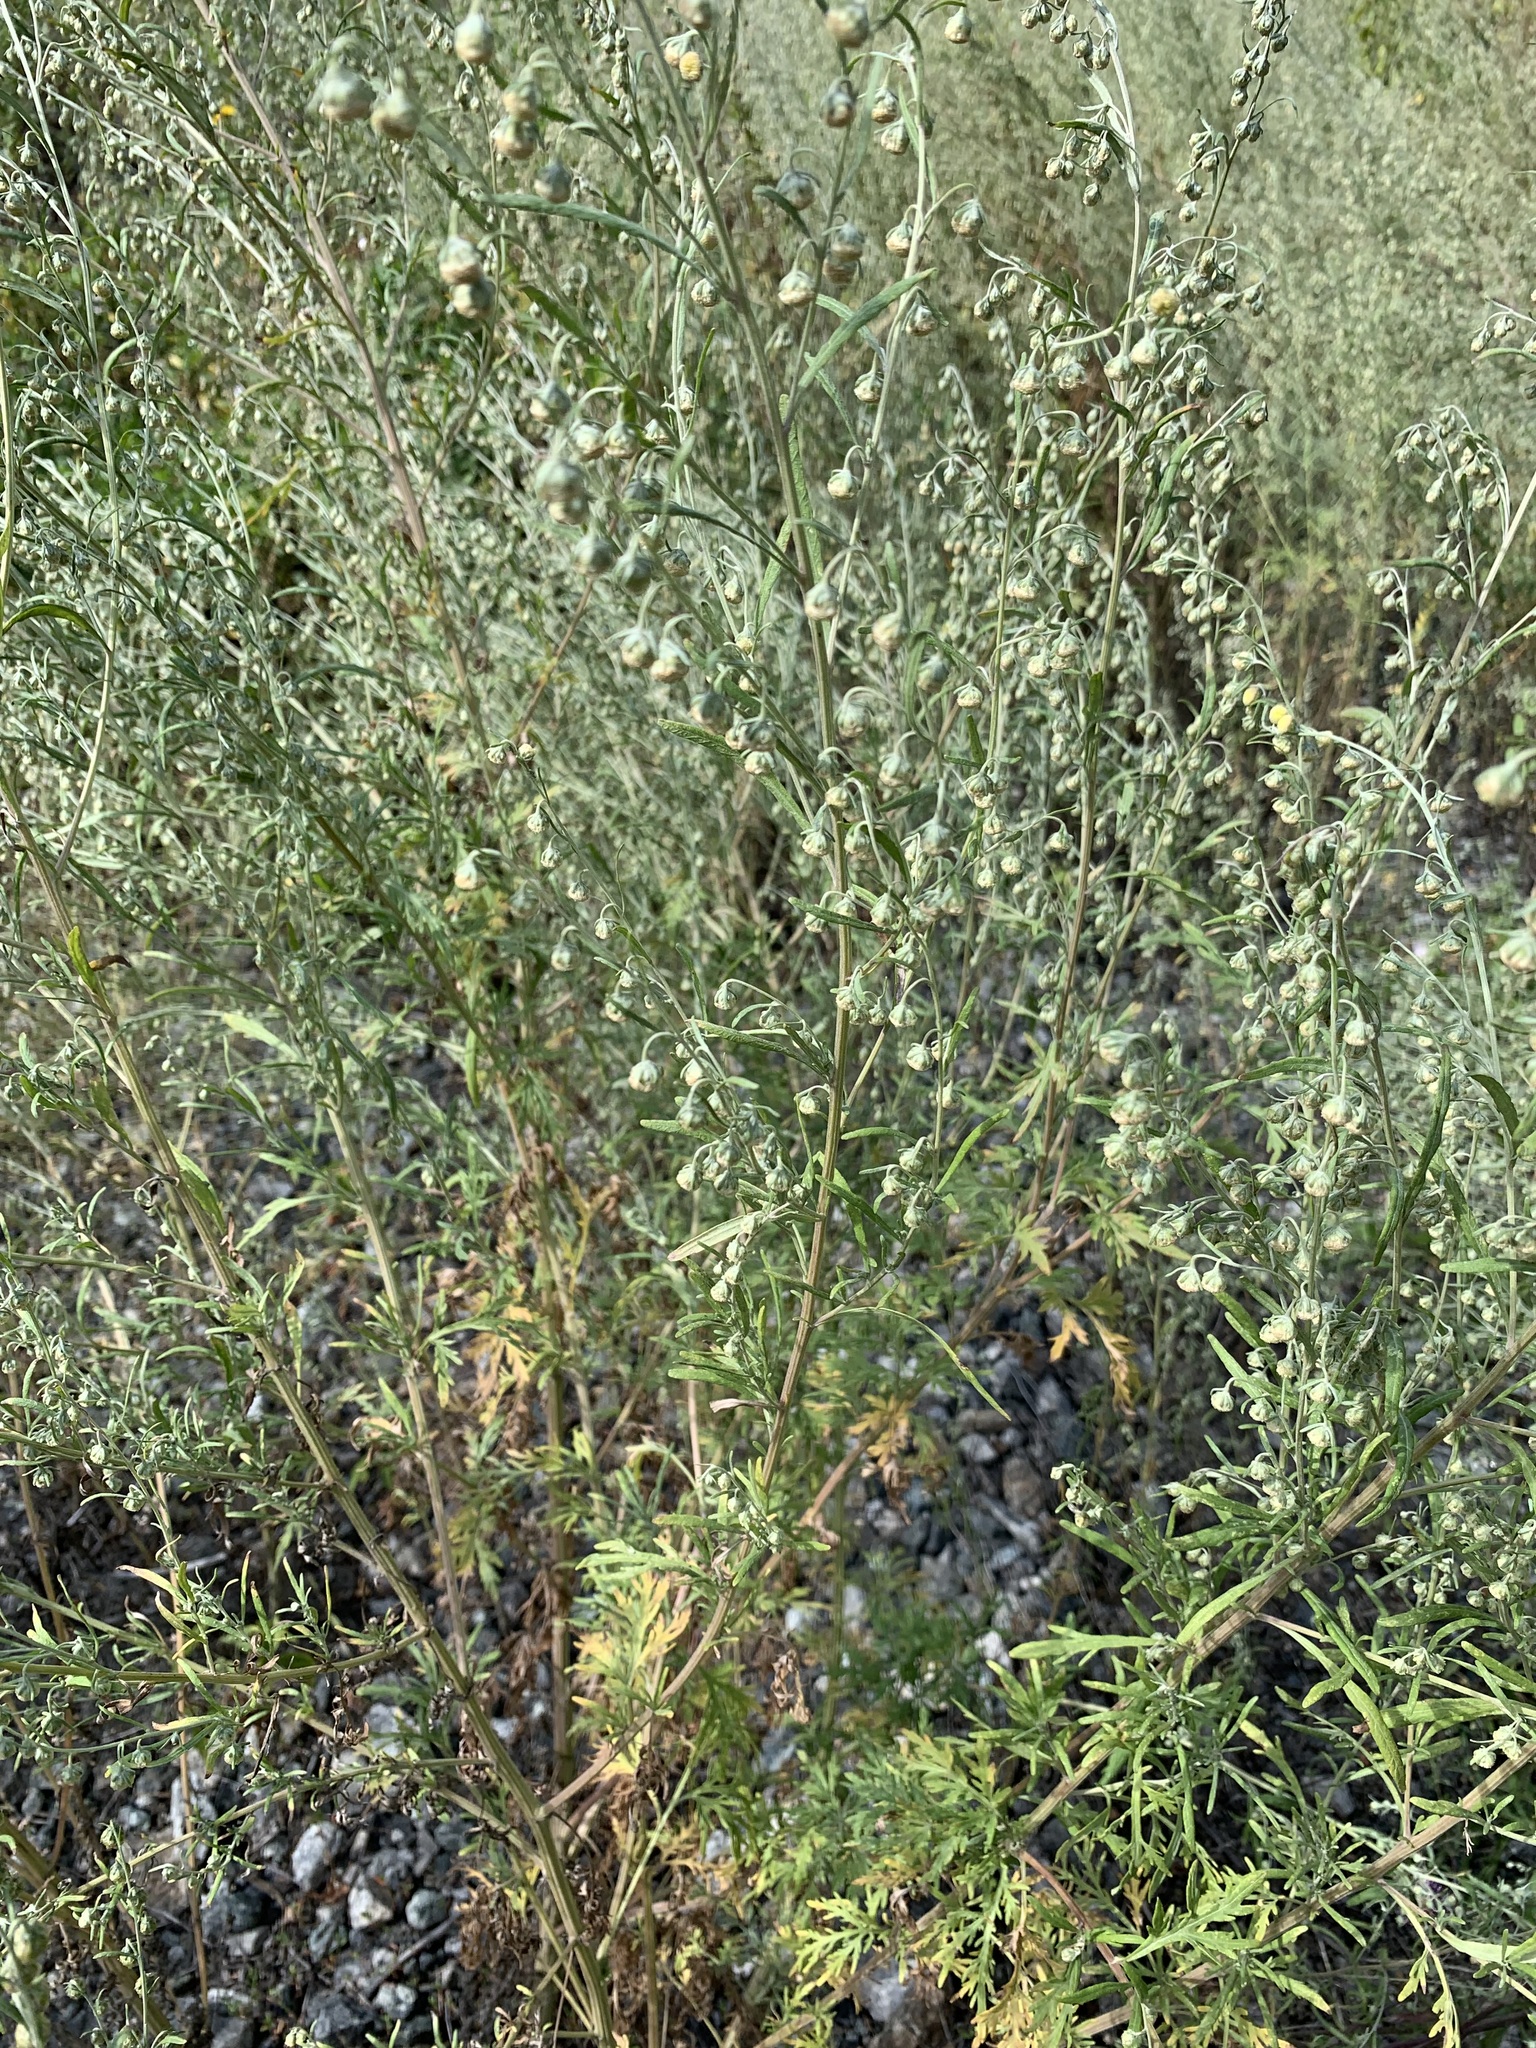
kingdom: Plantae
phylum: Tracheophyta
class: Magnoliopsida
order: Asterales
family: Asteraceae
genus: Artemisia
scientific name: Artemisia sieversiana
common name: Sieversian wormwood
